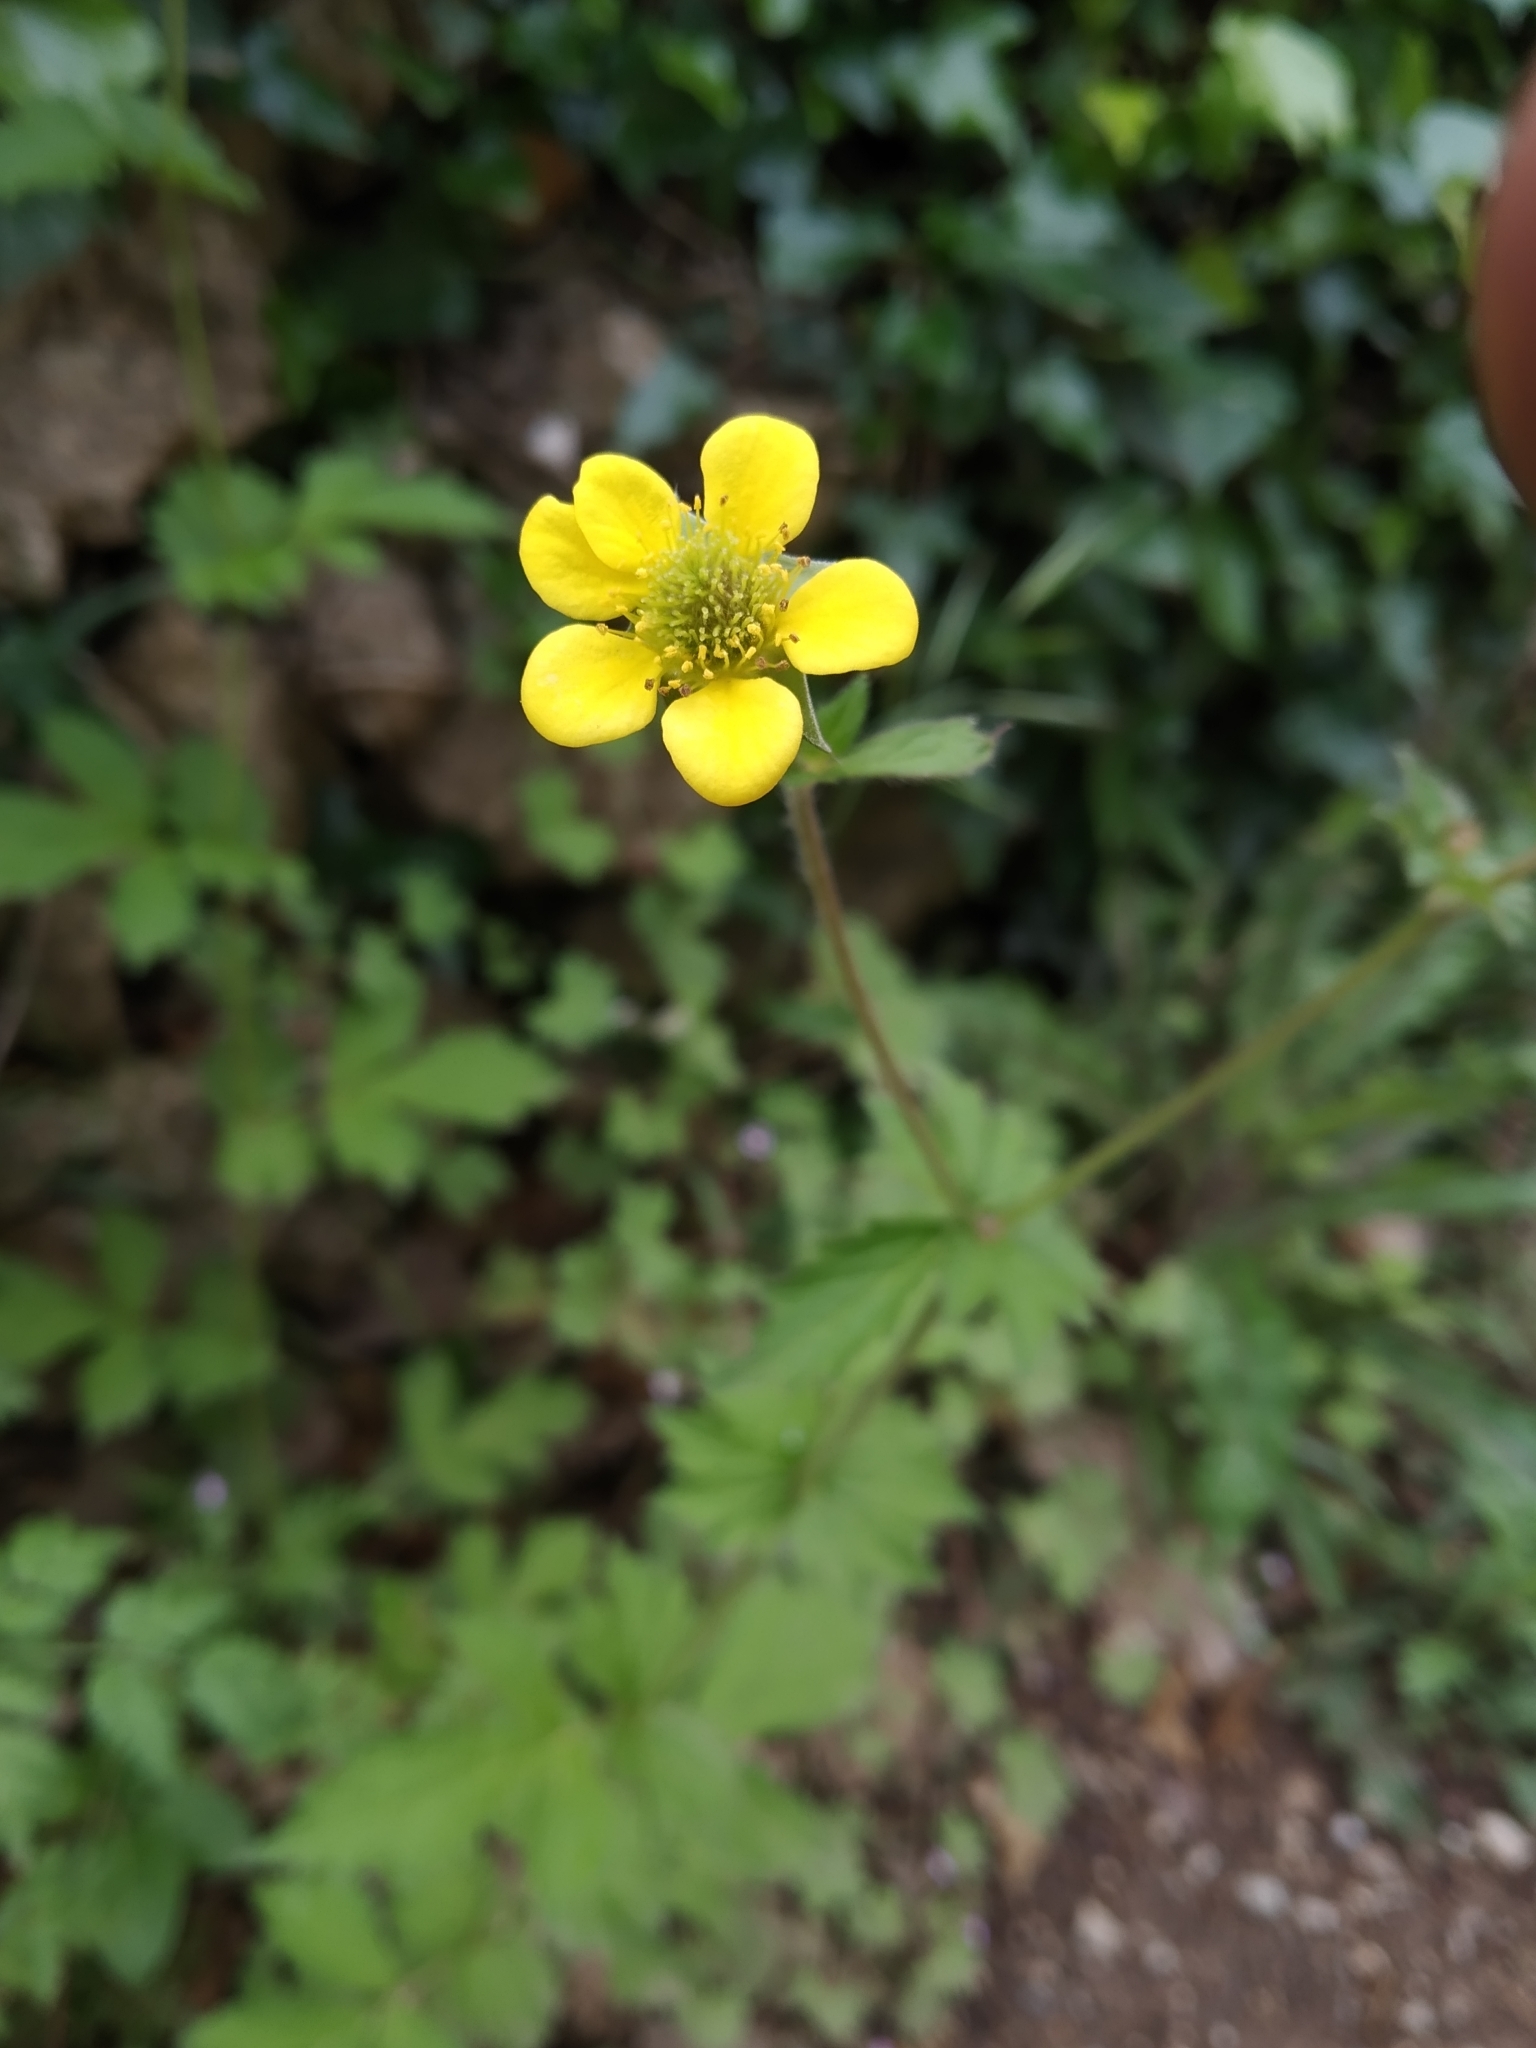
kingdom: Plantae
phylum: Tracheophyta
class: Magnoliopsida
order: Rosales
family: Rosaceae
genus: Geum
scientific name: Geum urbanum
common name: Wood avens
